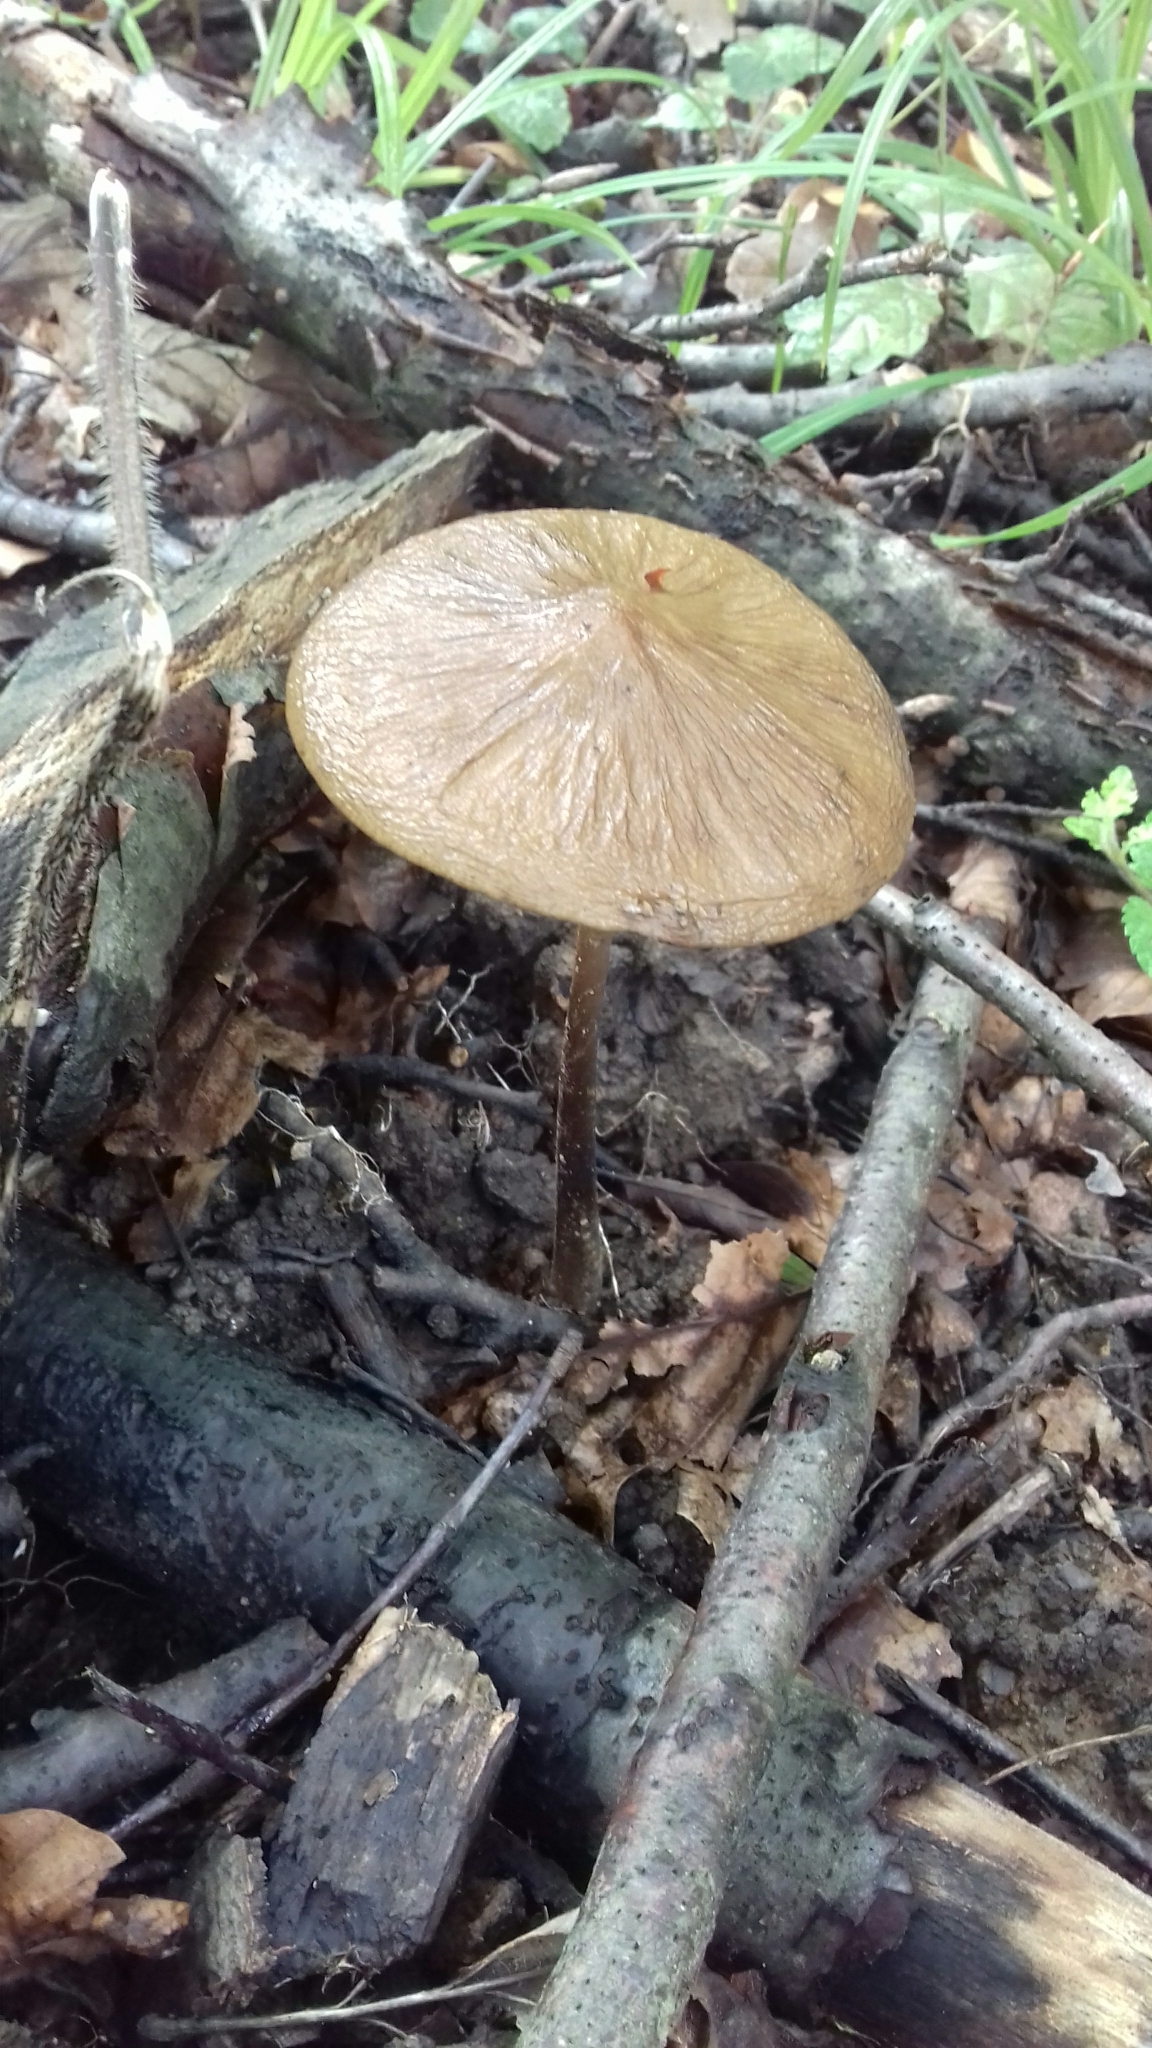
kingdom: Fungi
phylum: Basidiomycota
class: Agaricomycetes
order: Agaricales
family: Physalacriaceae
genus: Hymenopellis
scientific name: Hymenopellis radicata
